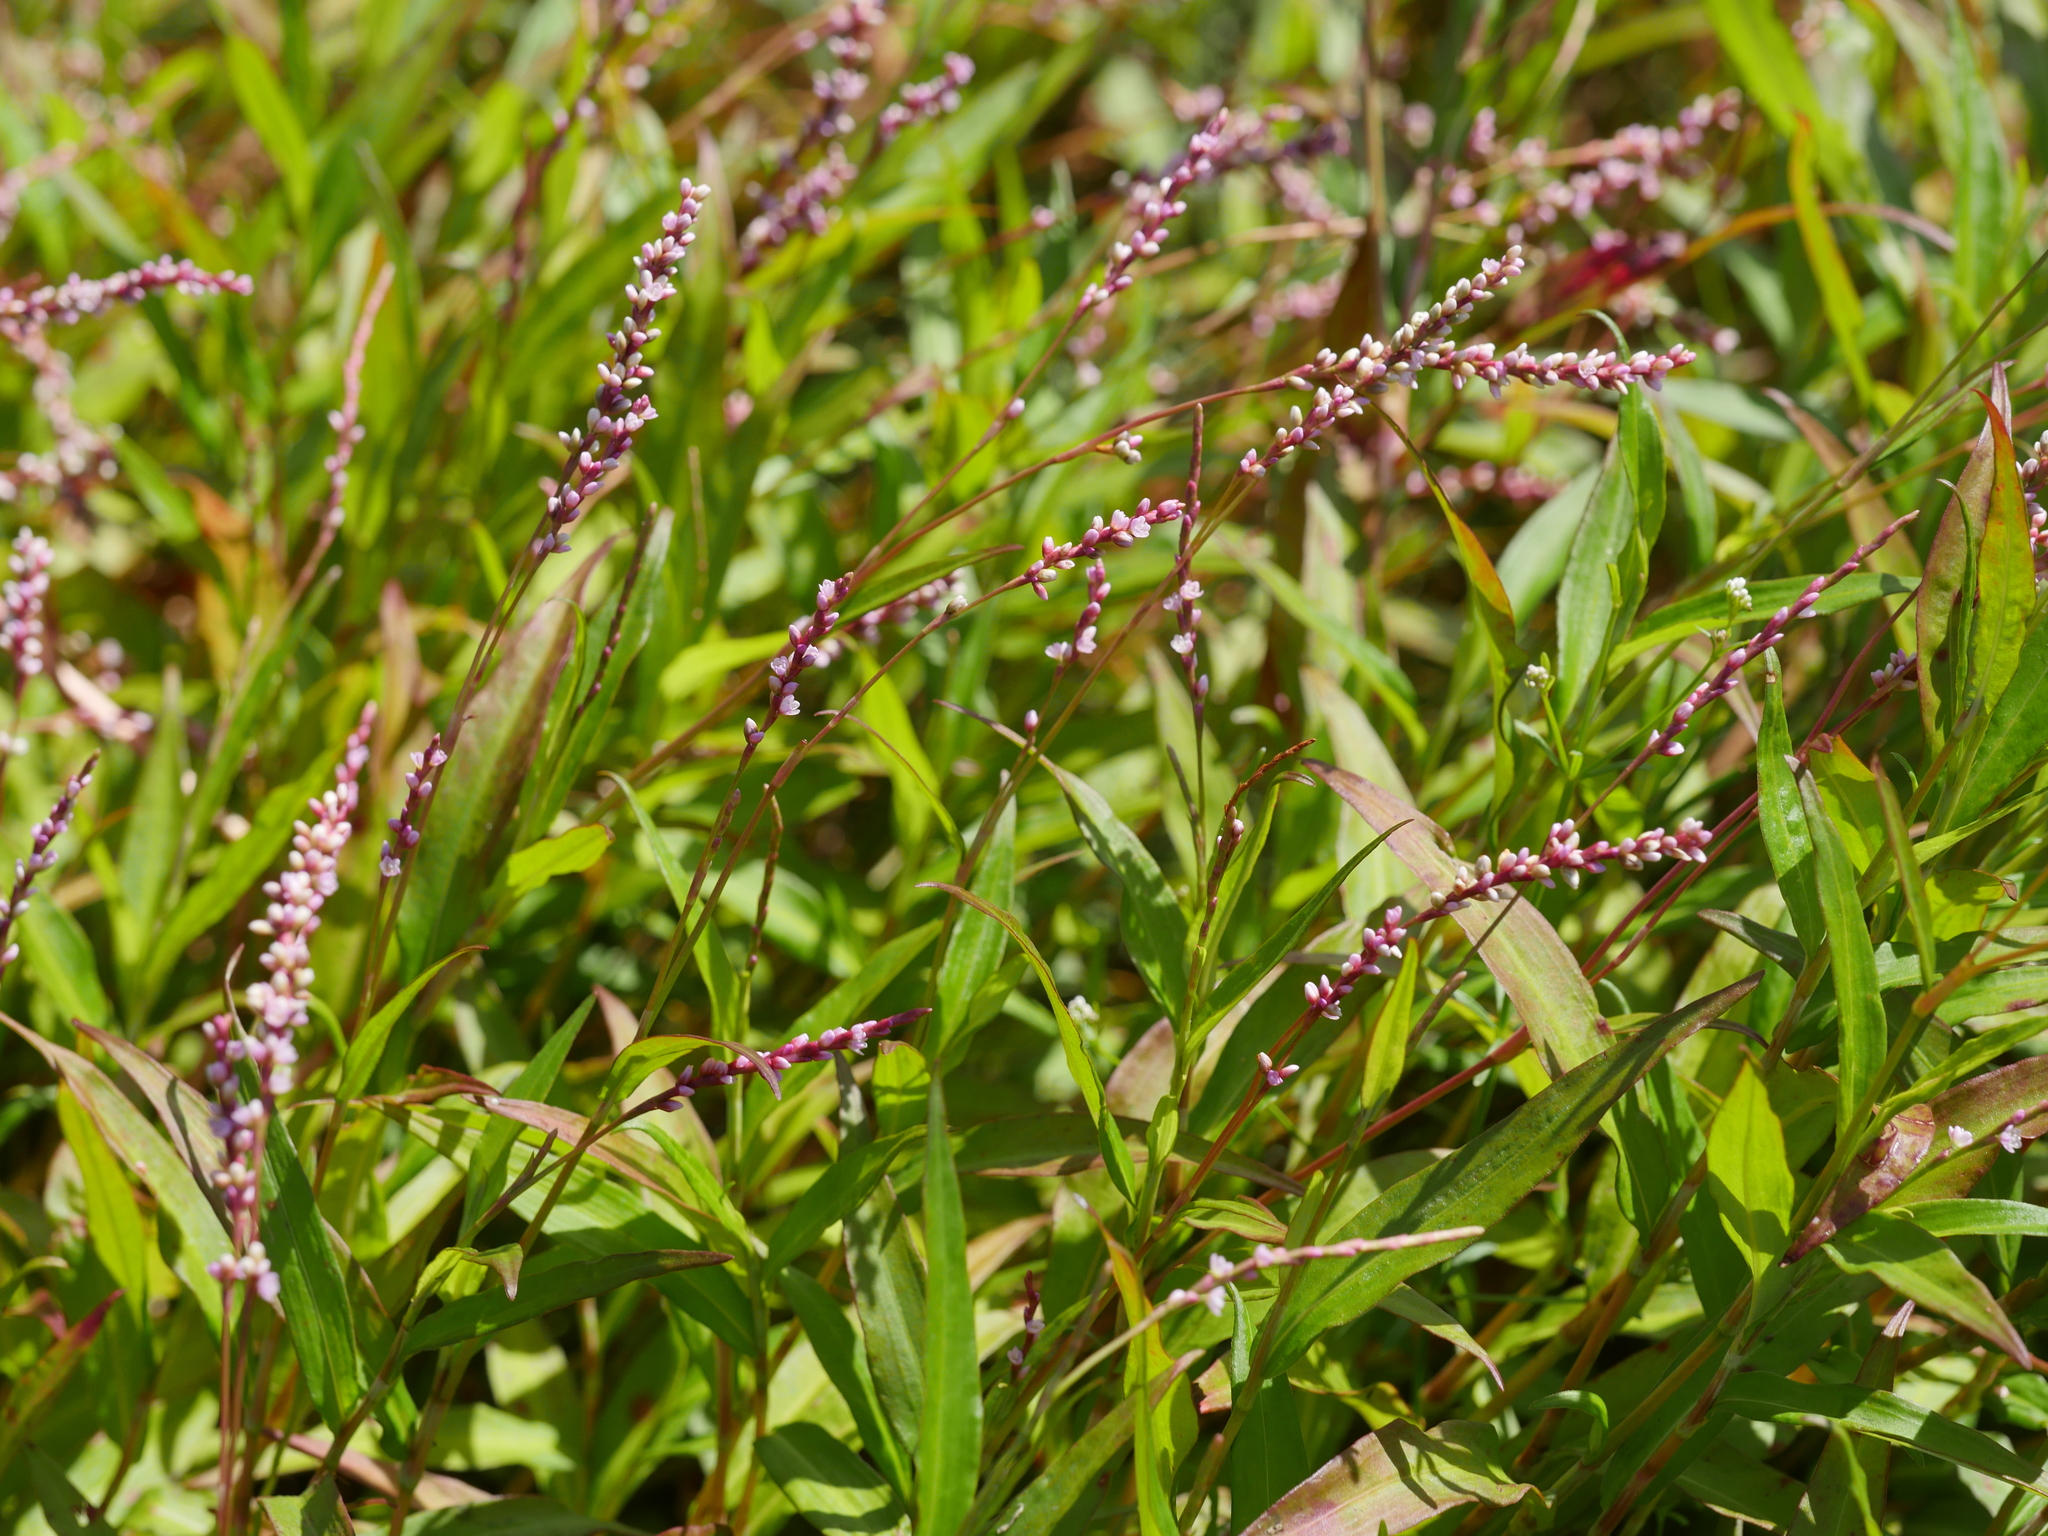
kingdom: Plantae
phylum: Tracheophyta
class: Magnoliopsida
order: Caryophyllales
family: Polygonaceae
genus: Persicaria
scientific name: Persicaria hydropiper
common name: Water-pepper
